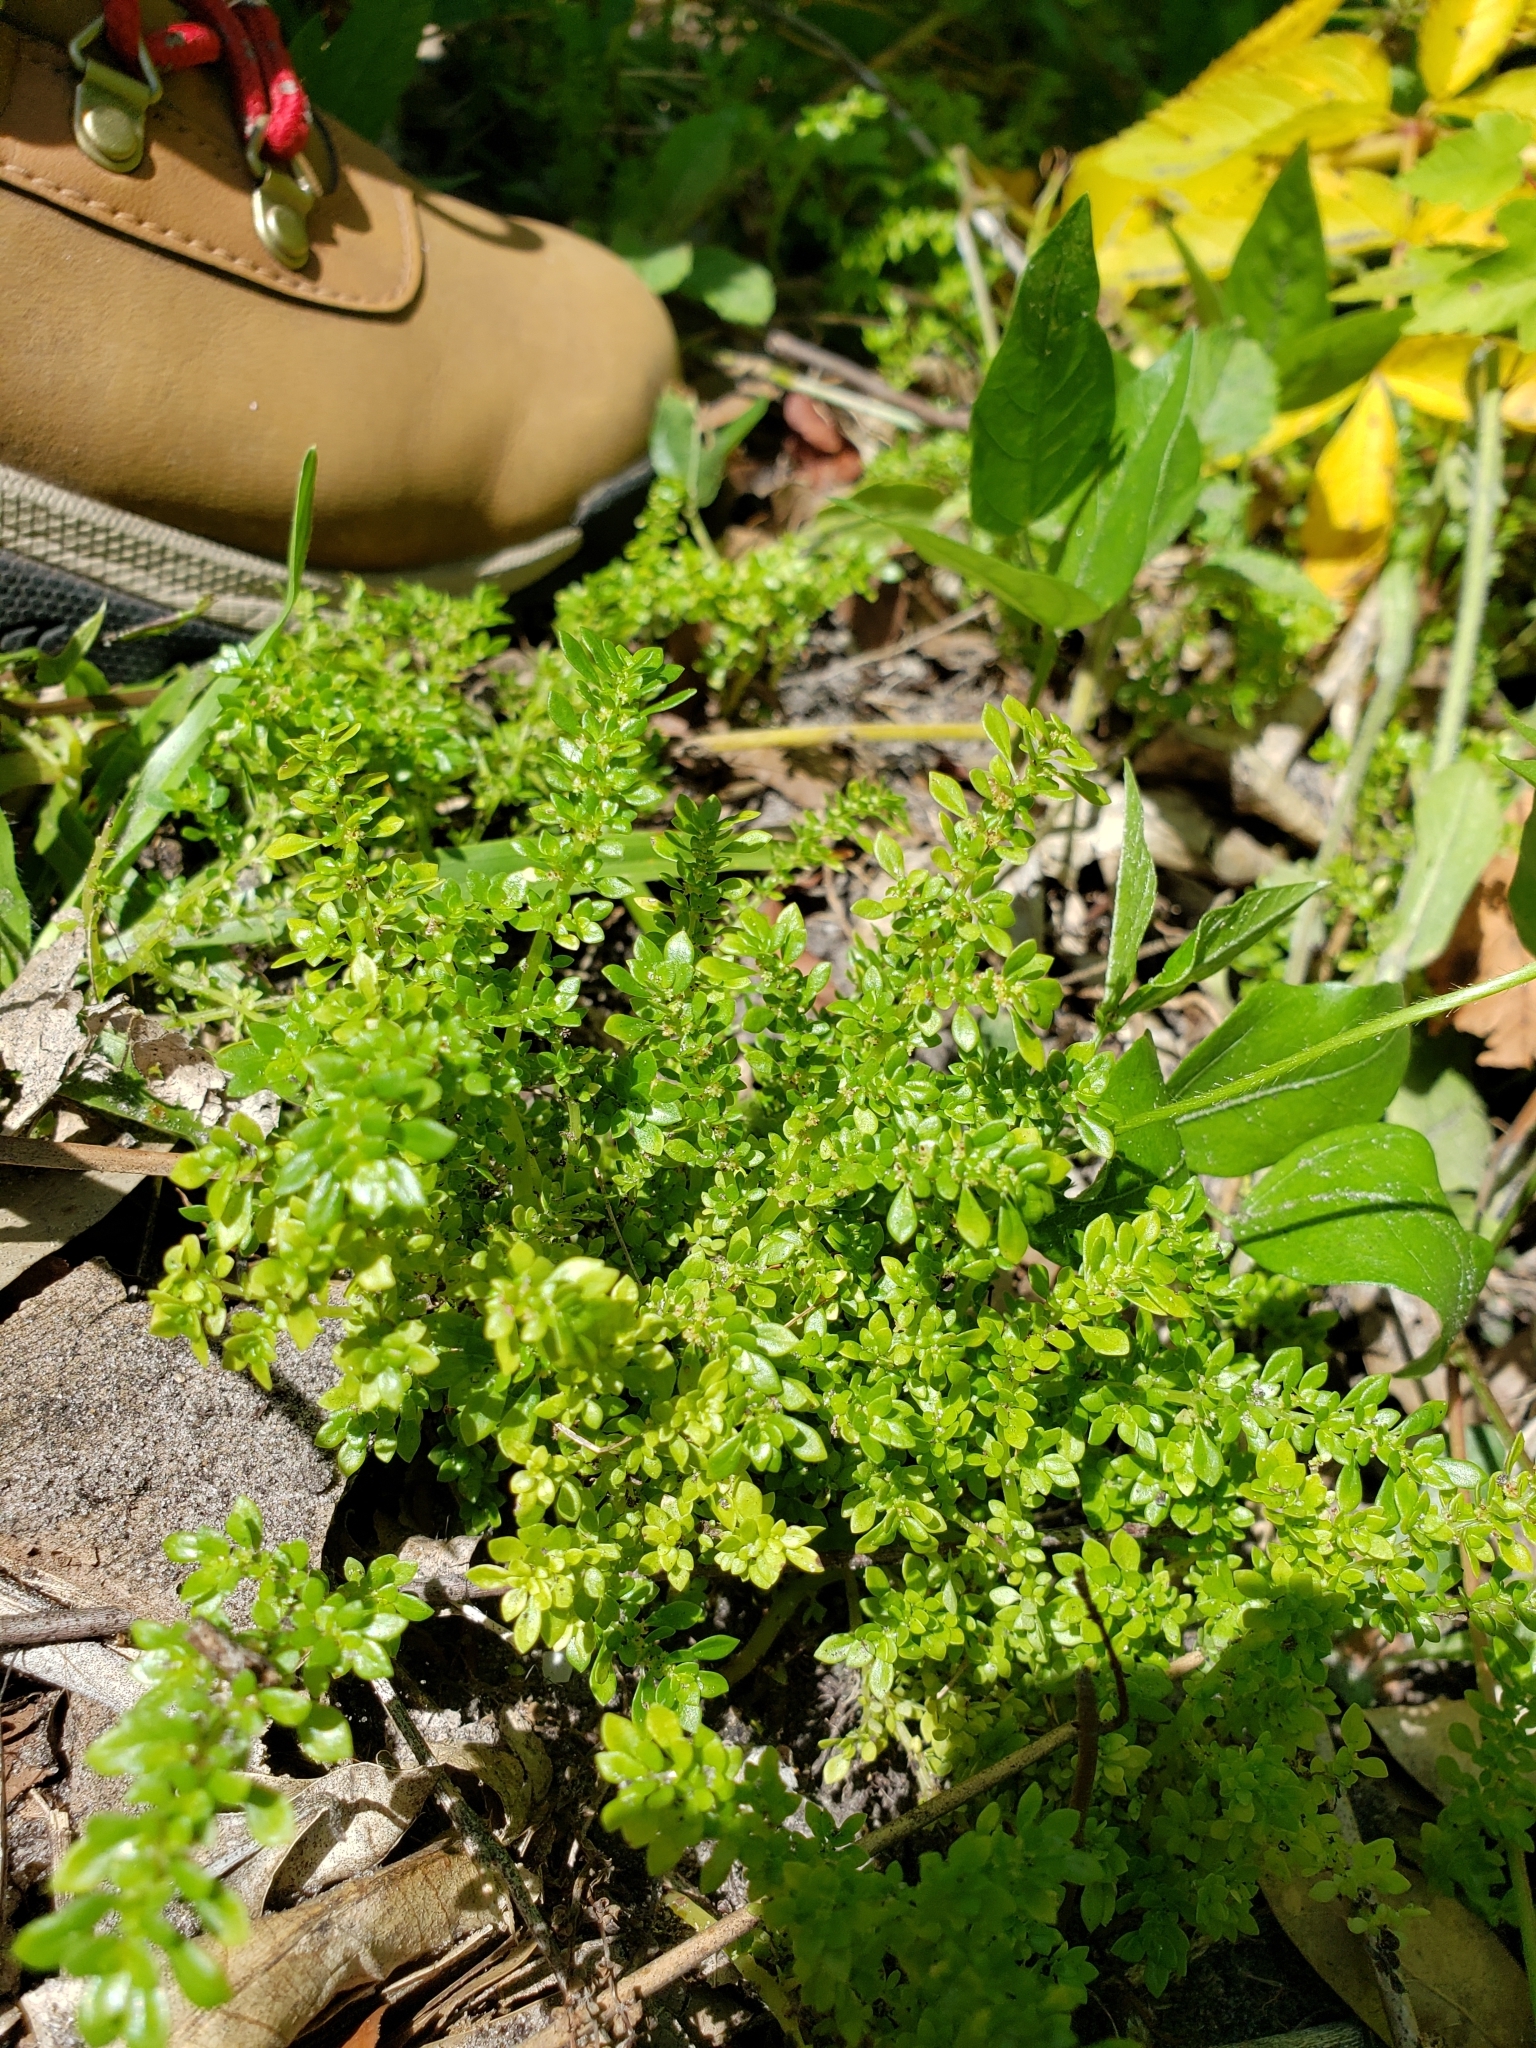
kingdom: Plantae
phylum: Tracheophyta
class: Magnoliopsida
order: Rosales
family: Urticaceae
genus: Pilea
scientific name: Pilea microphylla
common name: Artillery-plant
